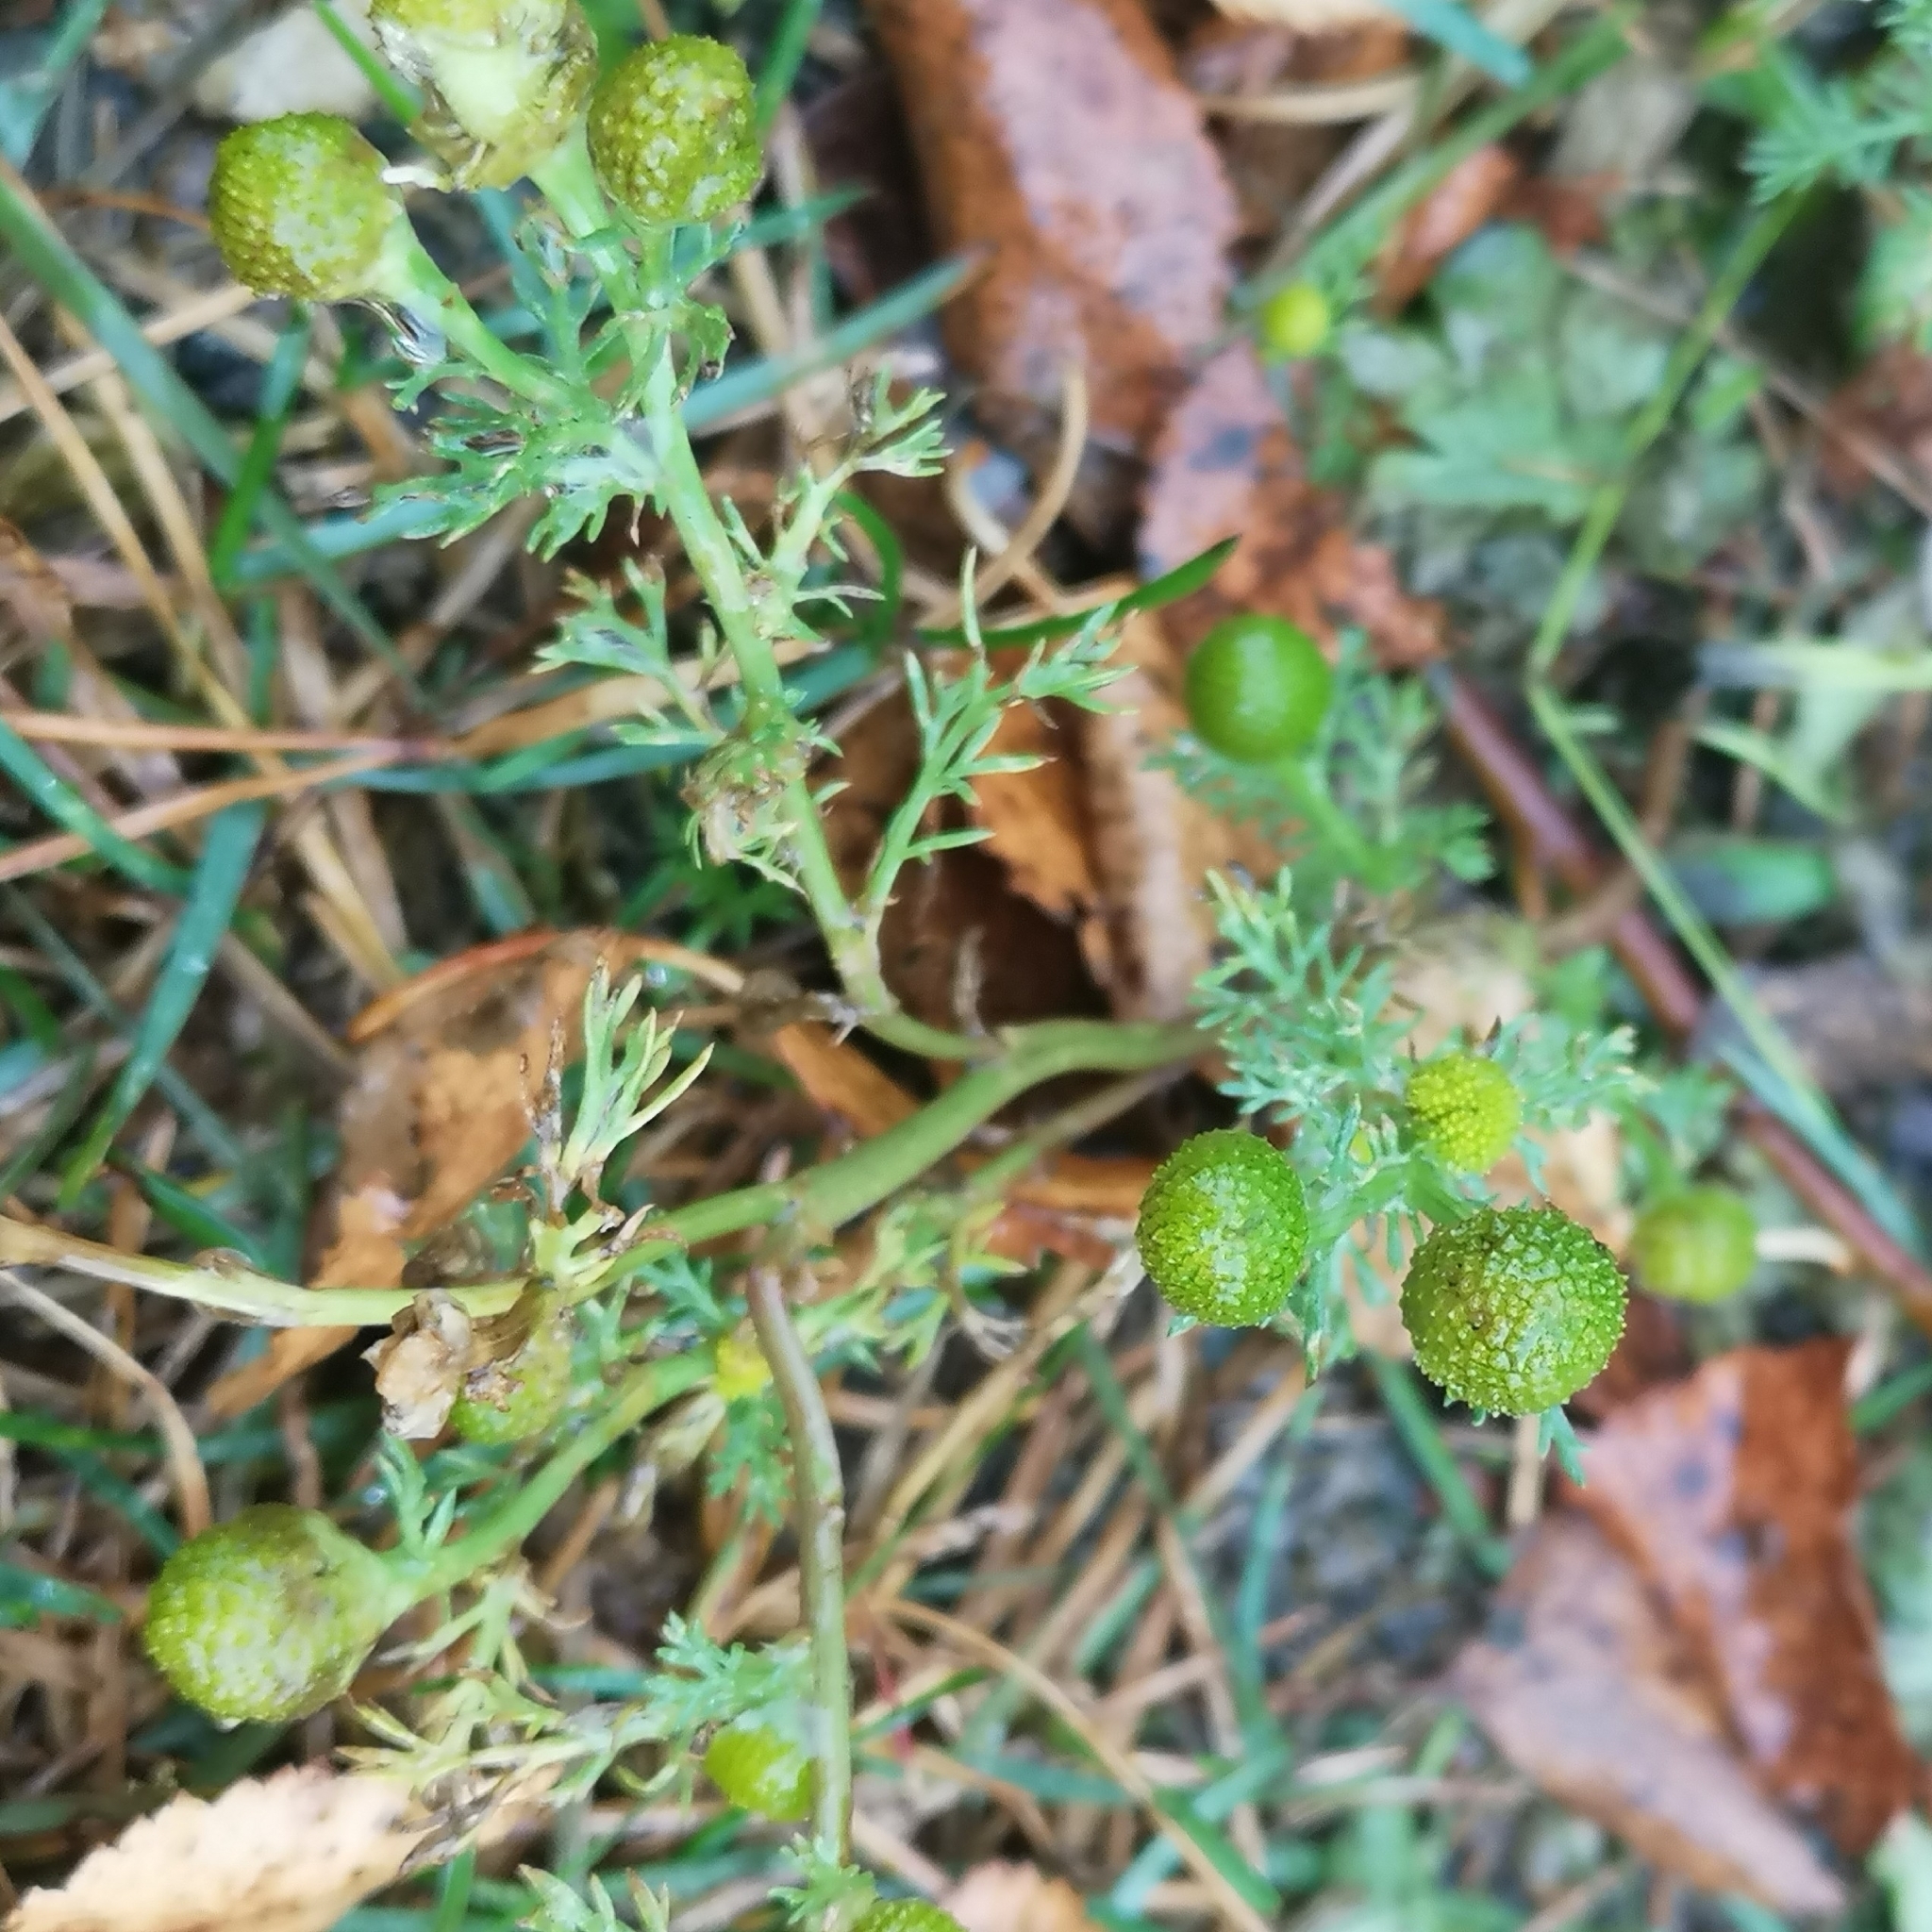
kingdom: Plantae
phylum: Tracheophyta
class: Magnoliopsida
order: Asterales
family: Asteraceae
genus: Matricaria
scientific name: Matricaria discoidea
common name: Disc mayweed
